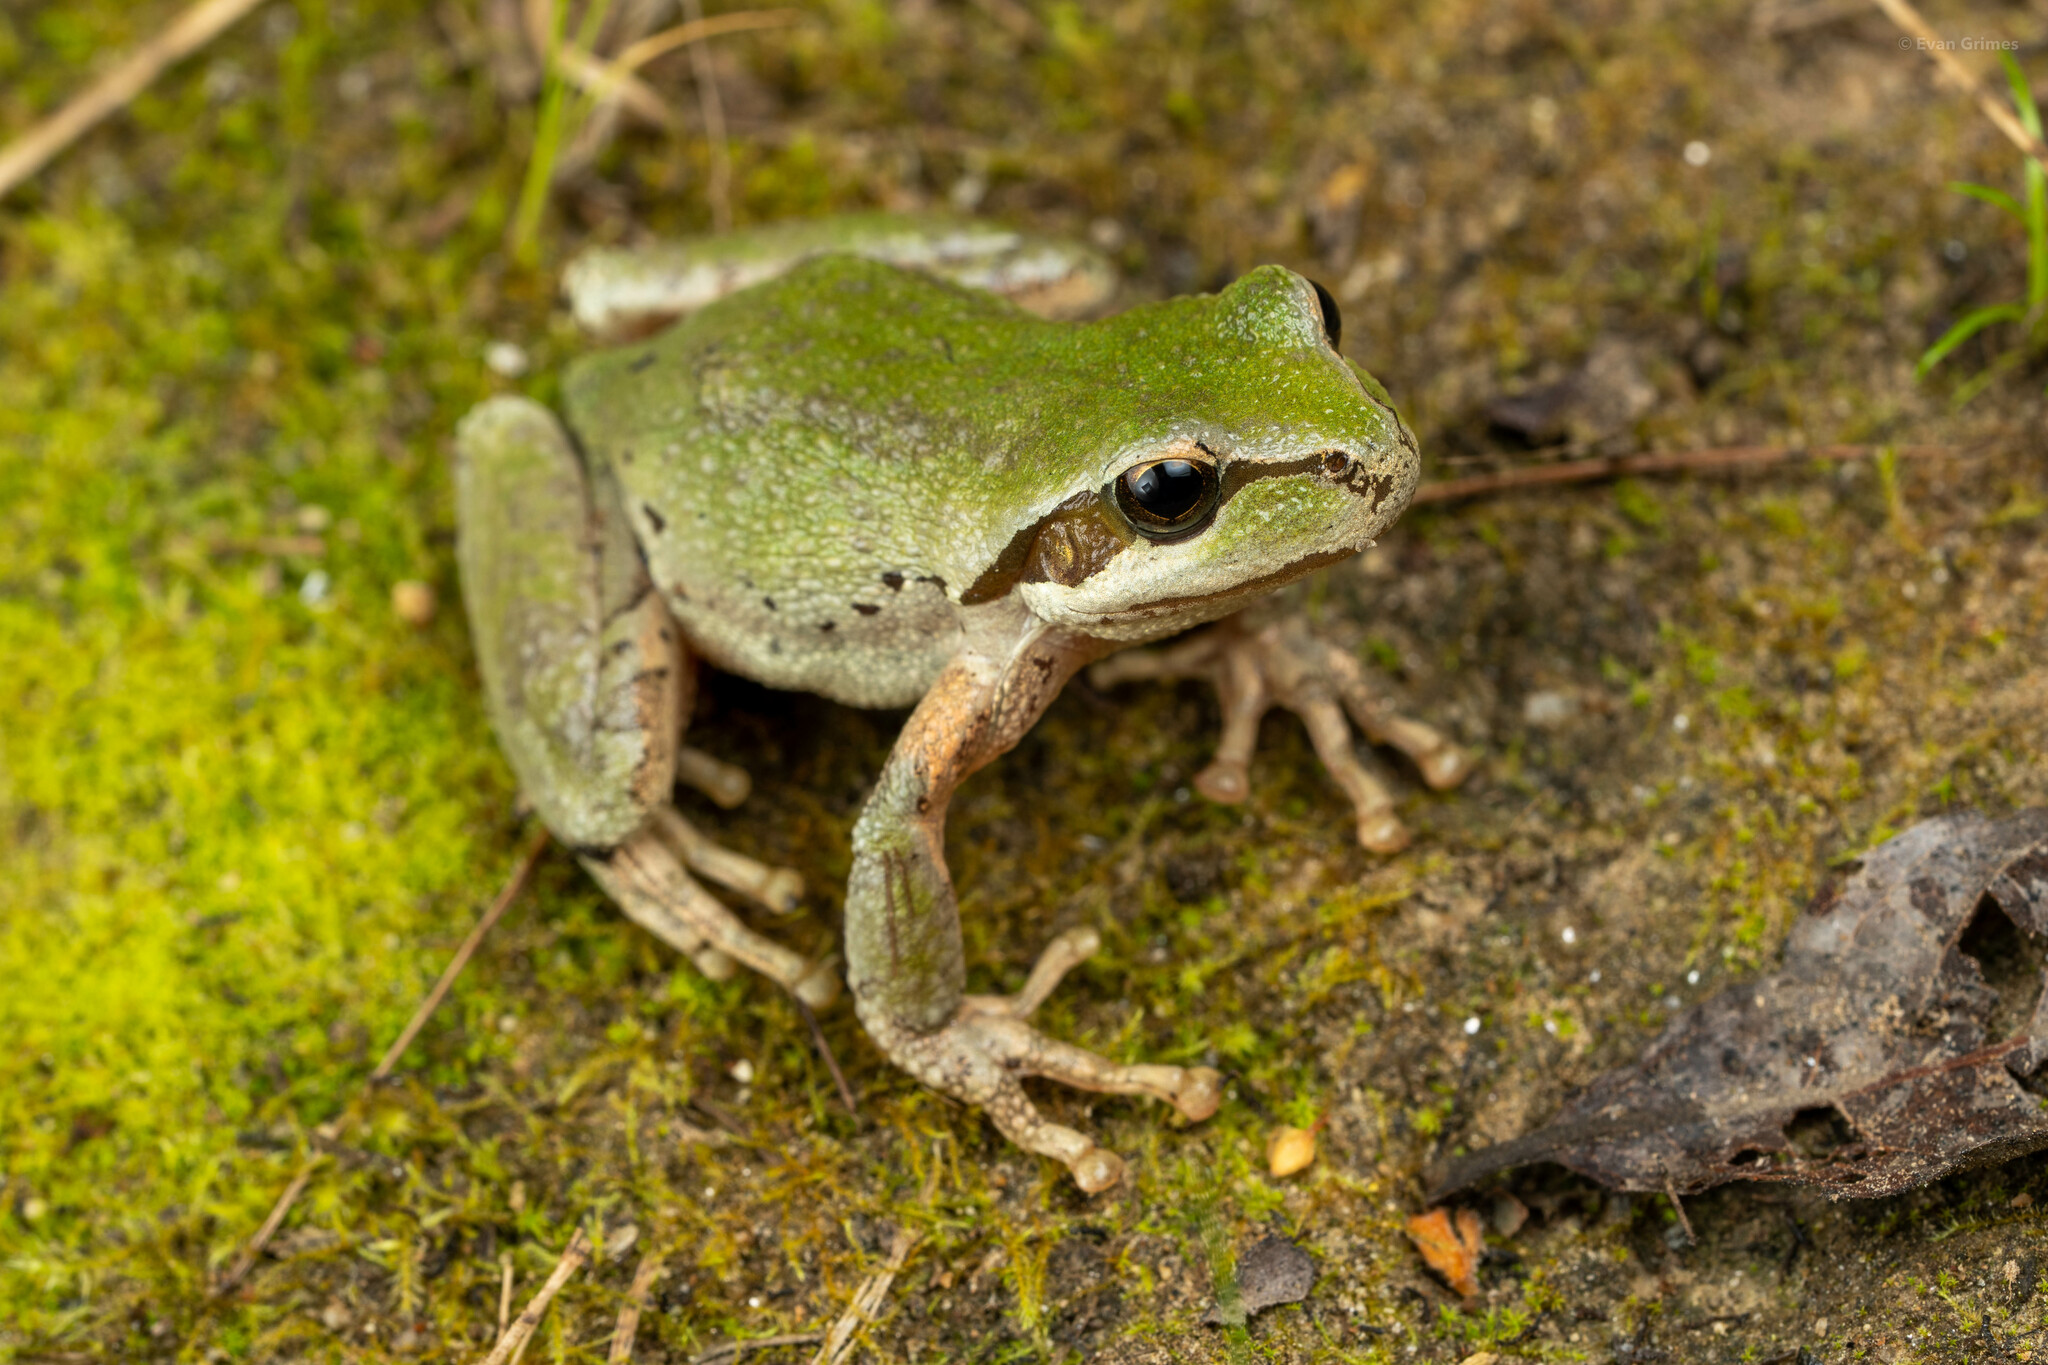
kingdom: Animalia
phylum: Chordata
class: Amphibia
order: Anura
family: Hylidae
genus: Pseudacris
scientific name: Pseudacris regilla
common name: Pacific chorus frog
